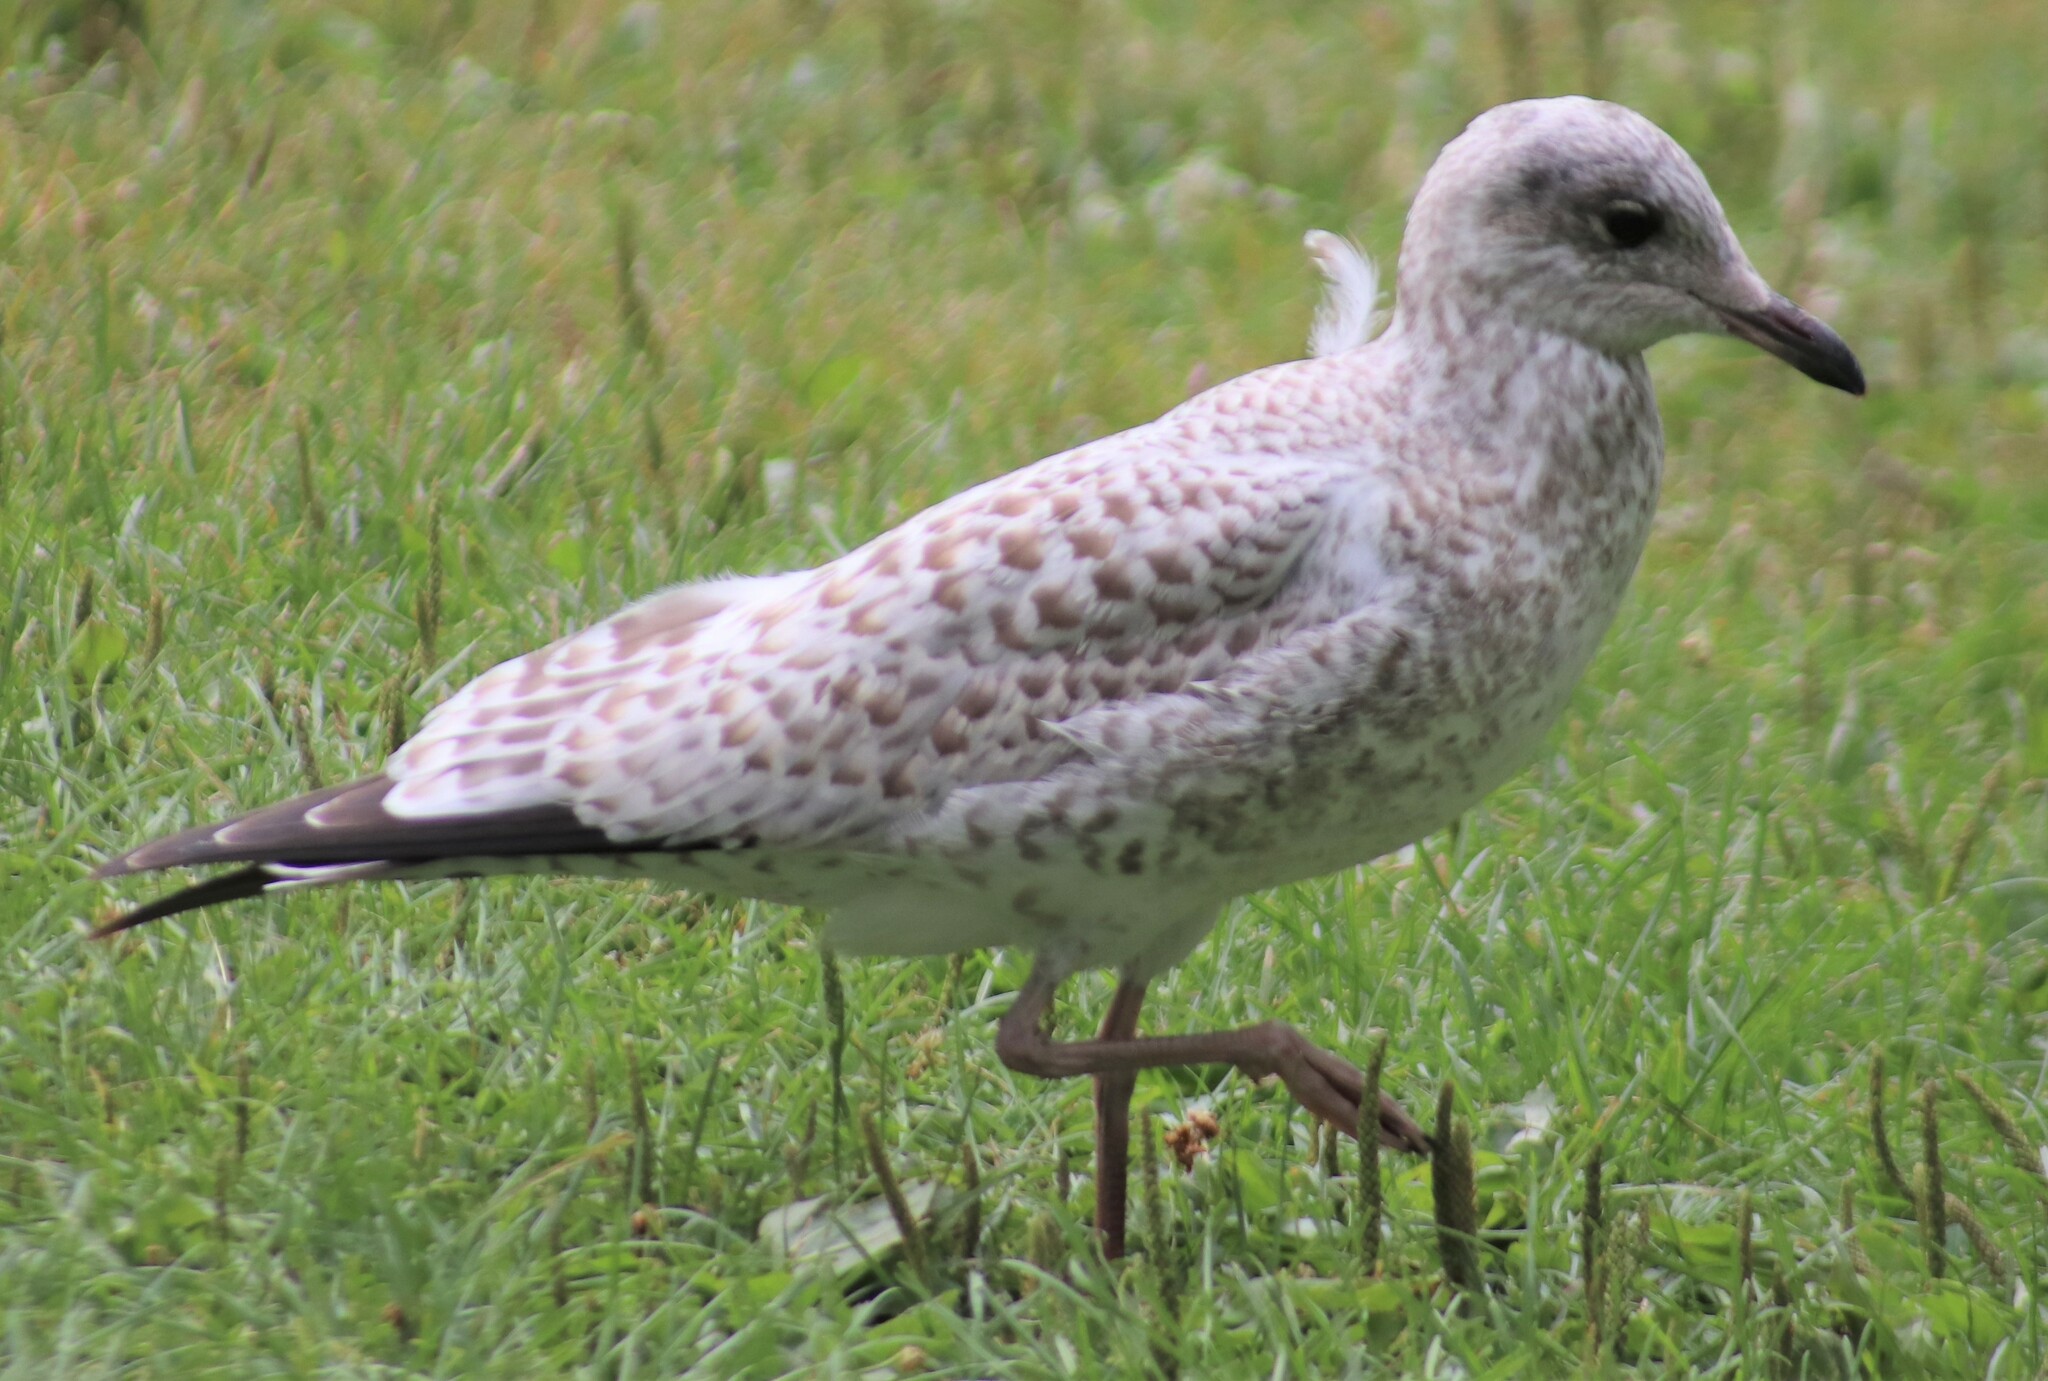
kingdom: Animalia
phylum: Chordata
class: Aves
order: Charadriiformes
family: Laridae
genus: Larus
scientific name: Larus delawarensis
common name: Ring-billed gull
